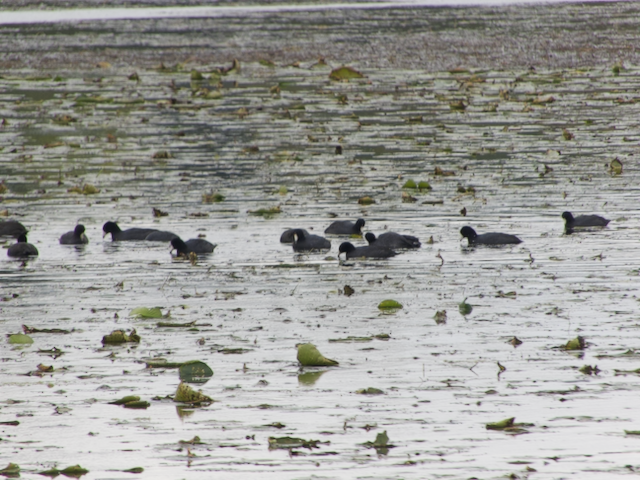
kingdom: Animalia
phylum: Chordata
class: Aves
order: Gruiformes
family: Rallidae
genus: Fulica
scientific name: Fulica americana
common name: American coot
